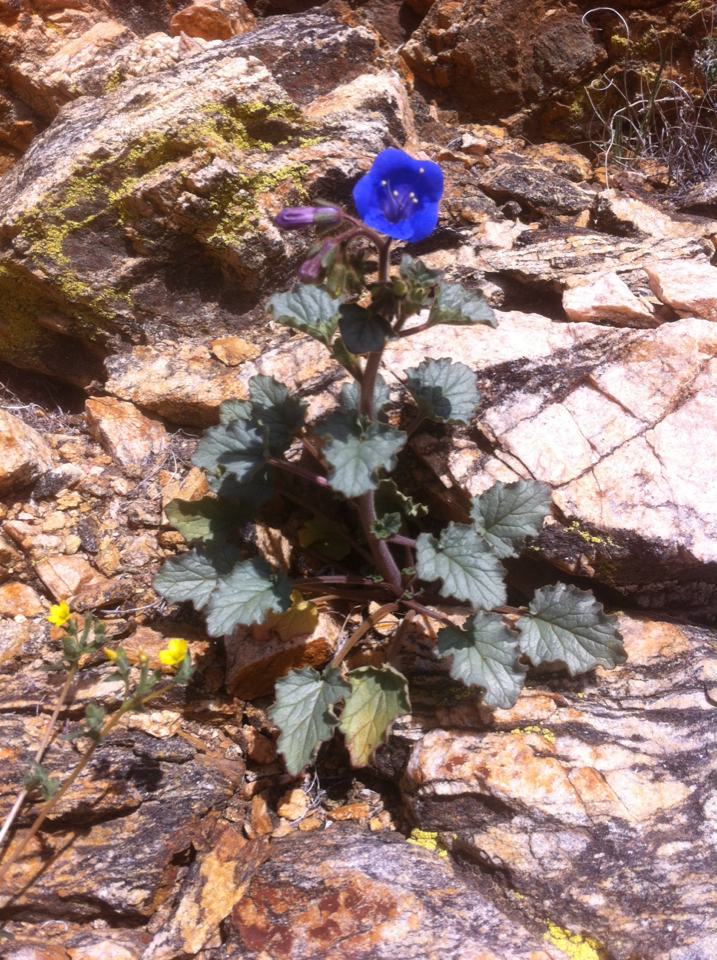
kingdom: Plantae
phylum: Tracheophyta
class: Magnoliopsida
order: Boraginales
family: Hydrophyllaceae
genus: Phacelia
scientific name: Phacelia campanularia
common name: California bluebell
